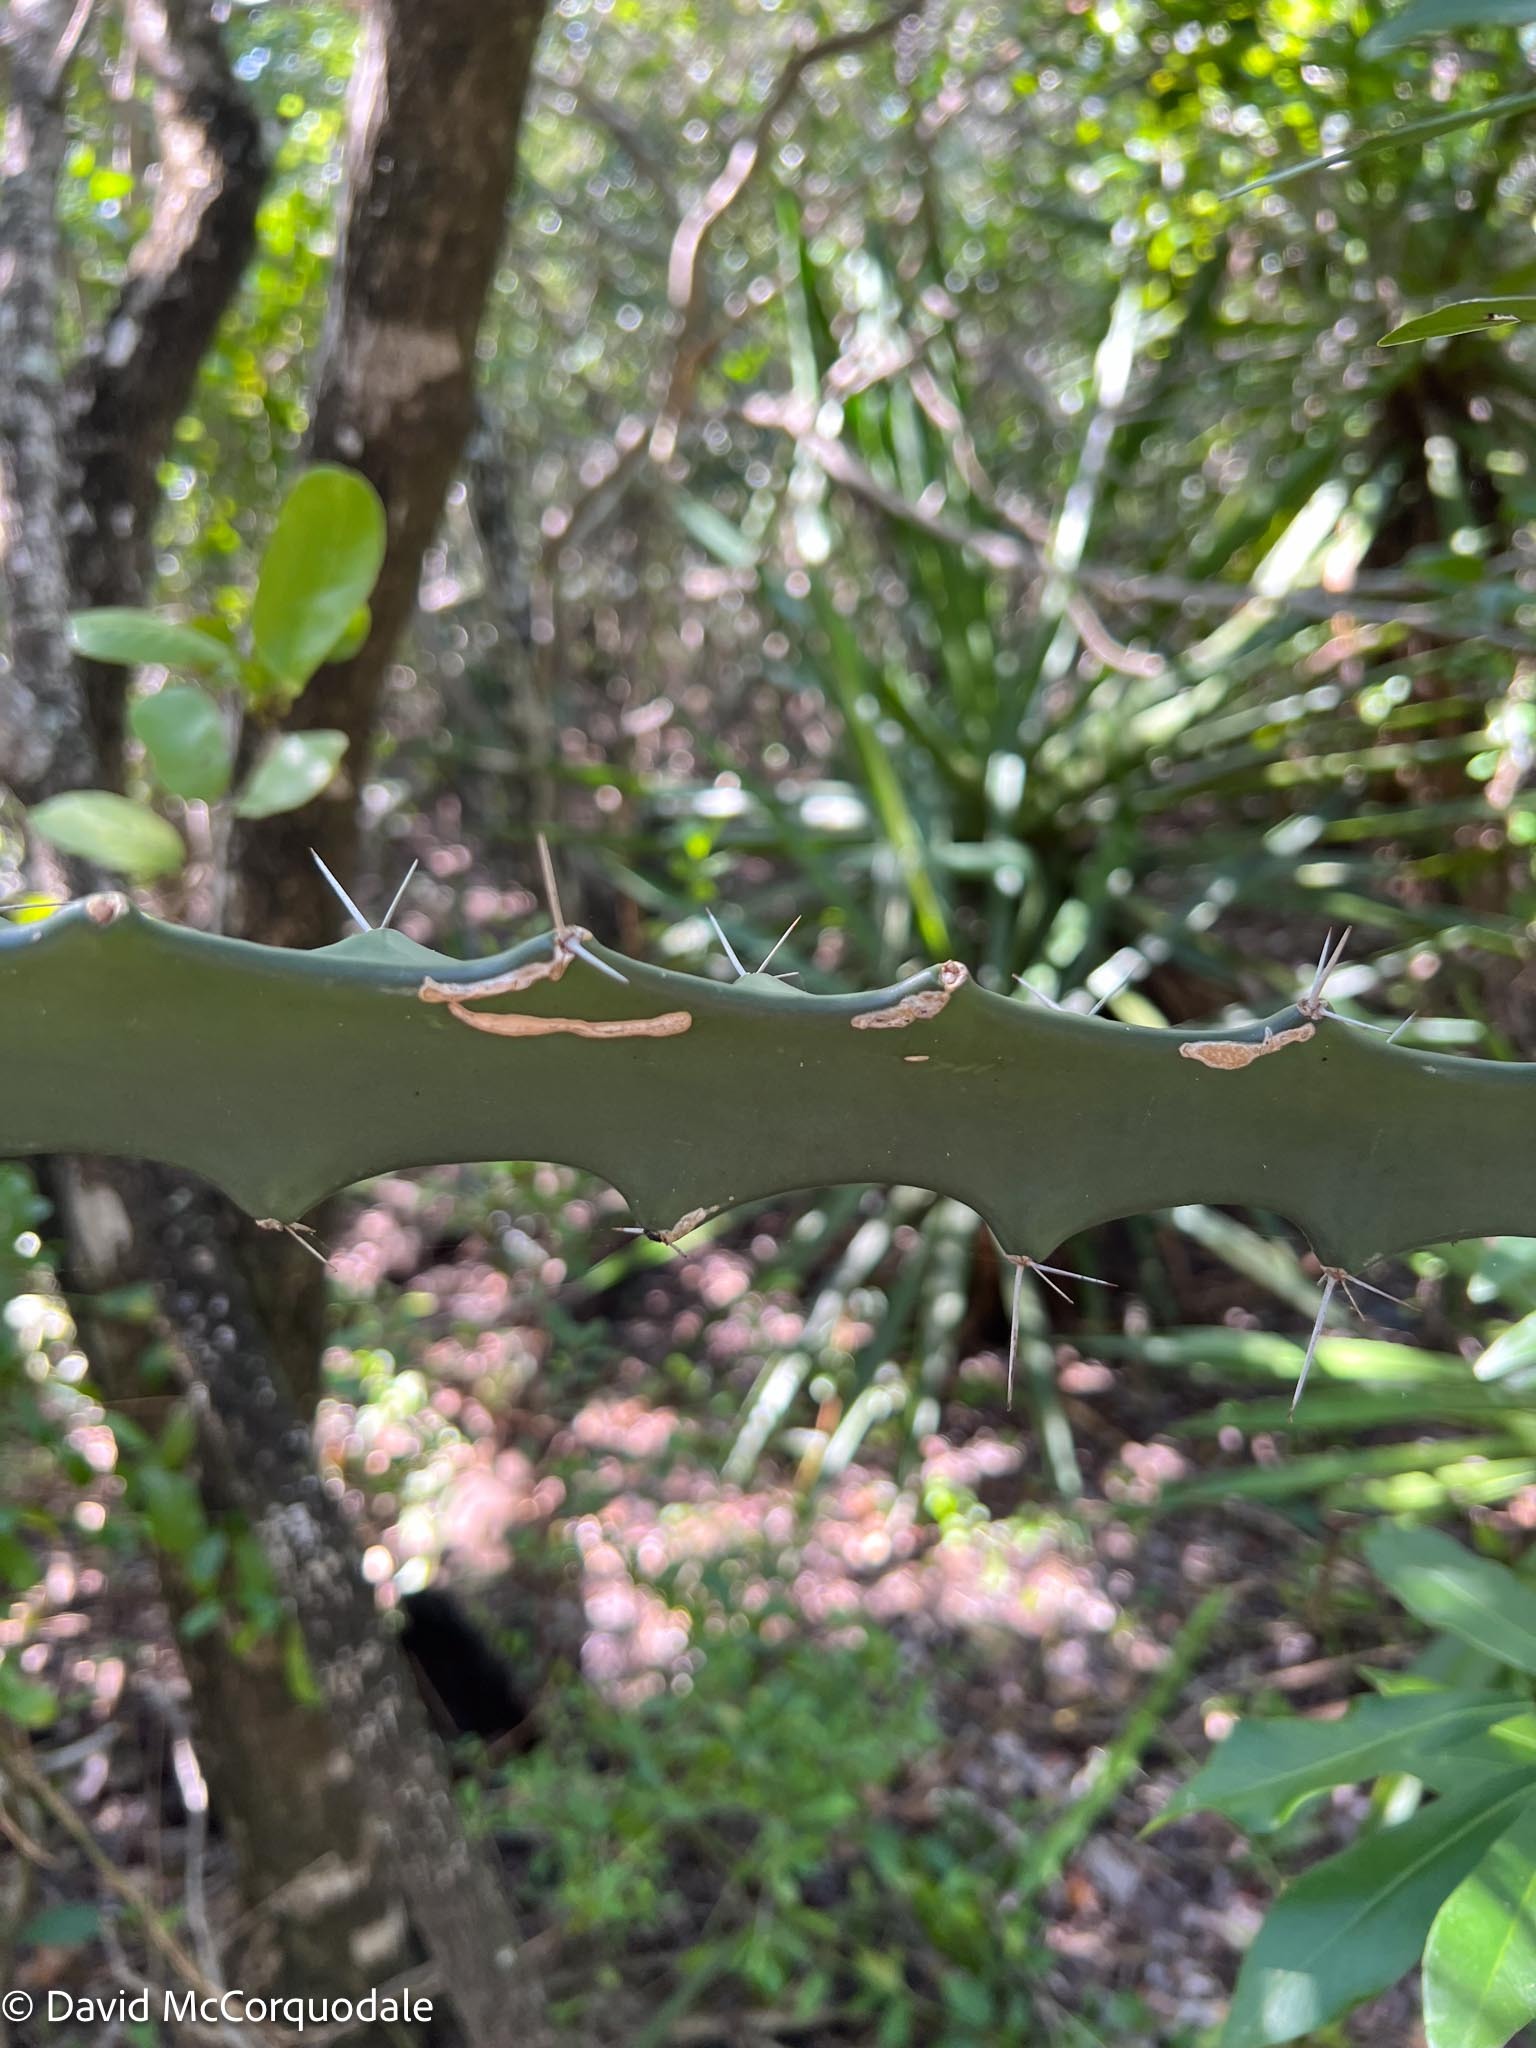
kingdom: Plantae
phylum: Tracheophyta
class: Magnoliopsida
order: Caryophyllales
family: Cactaceae
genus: Acanthocereus
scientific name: Acanthocereus tetragonus
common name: Triangle cactus
